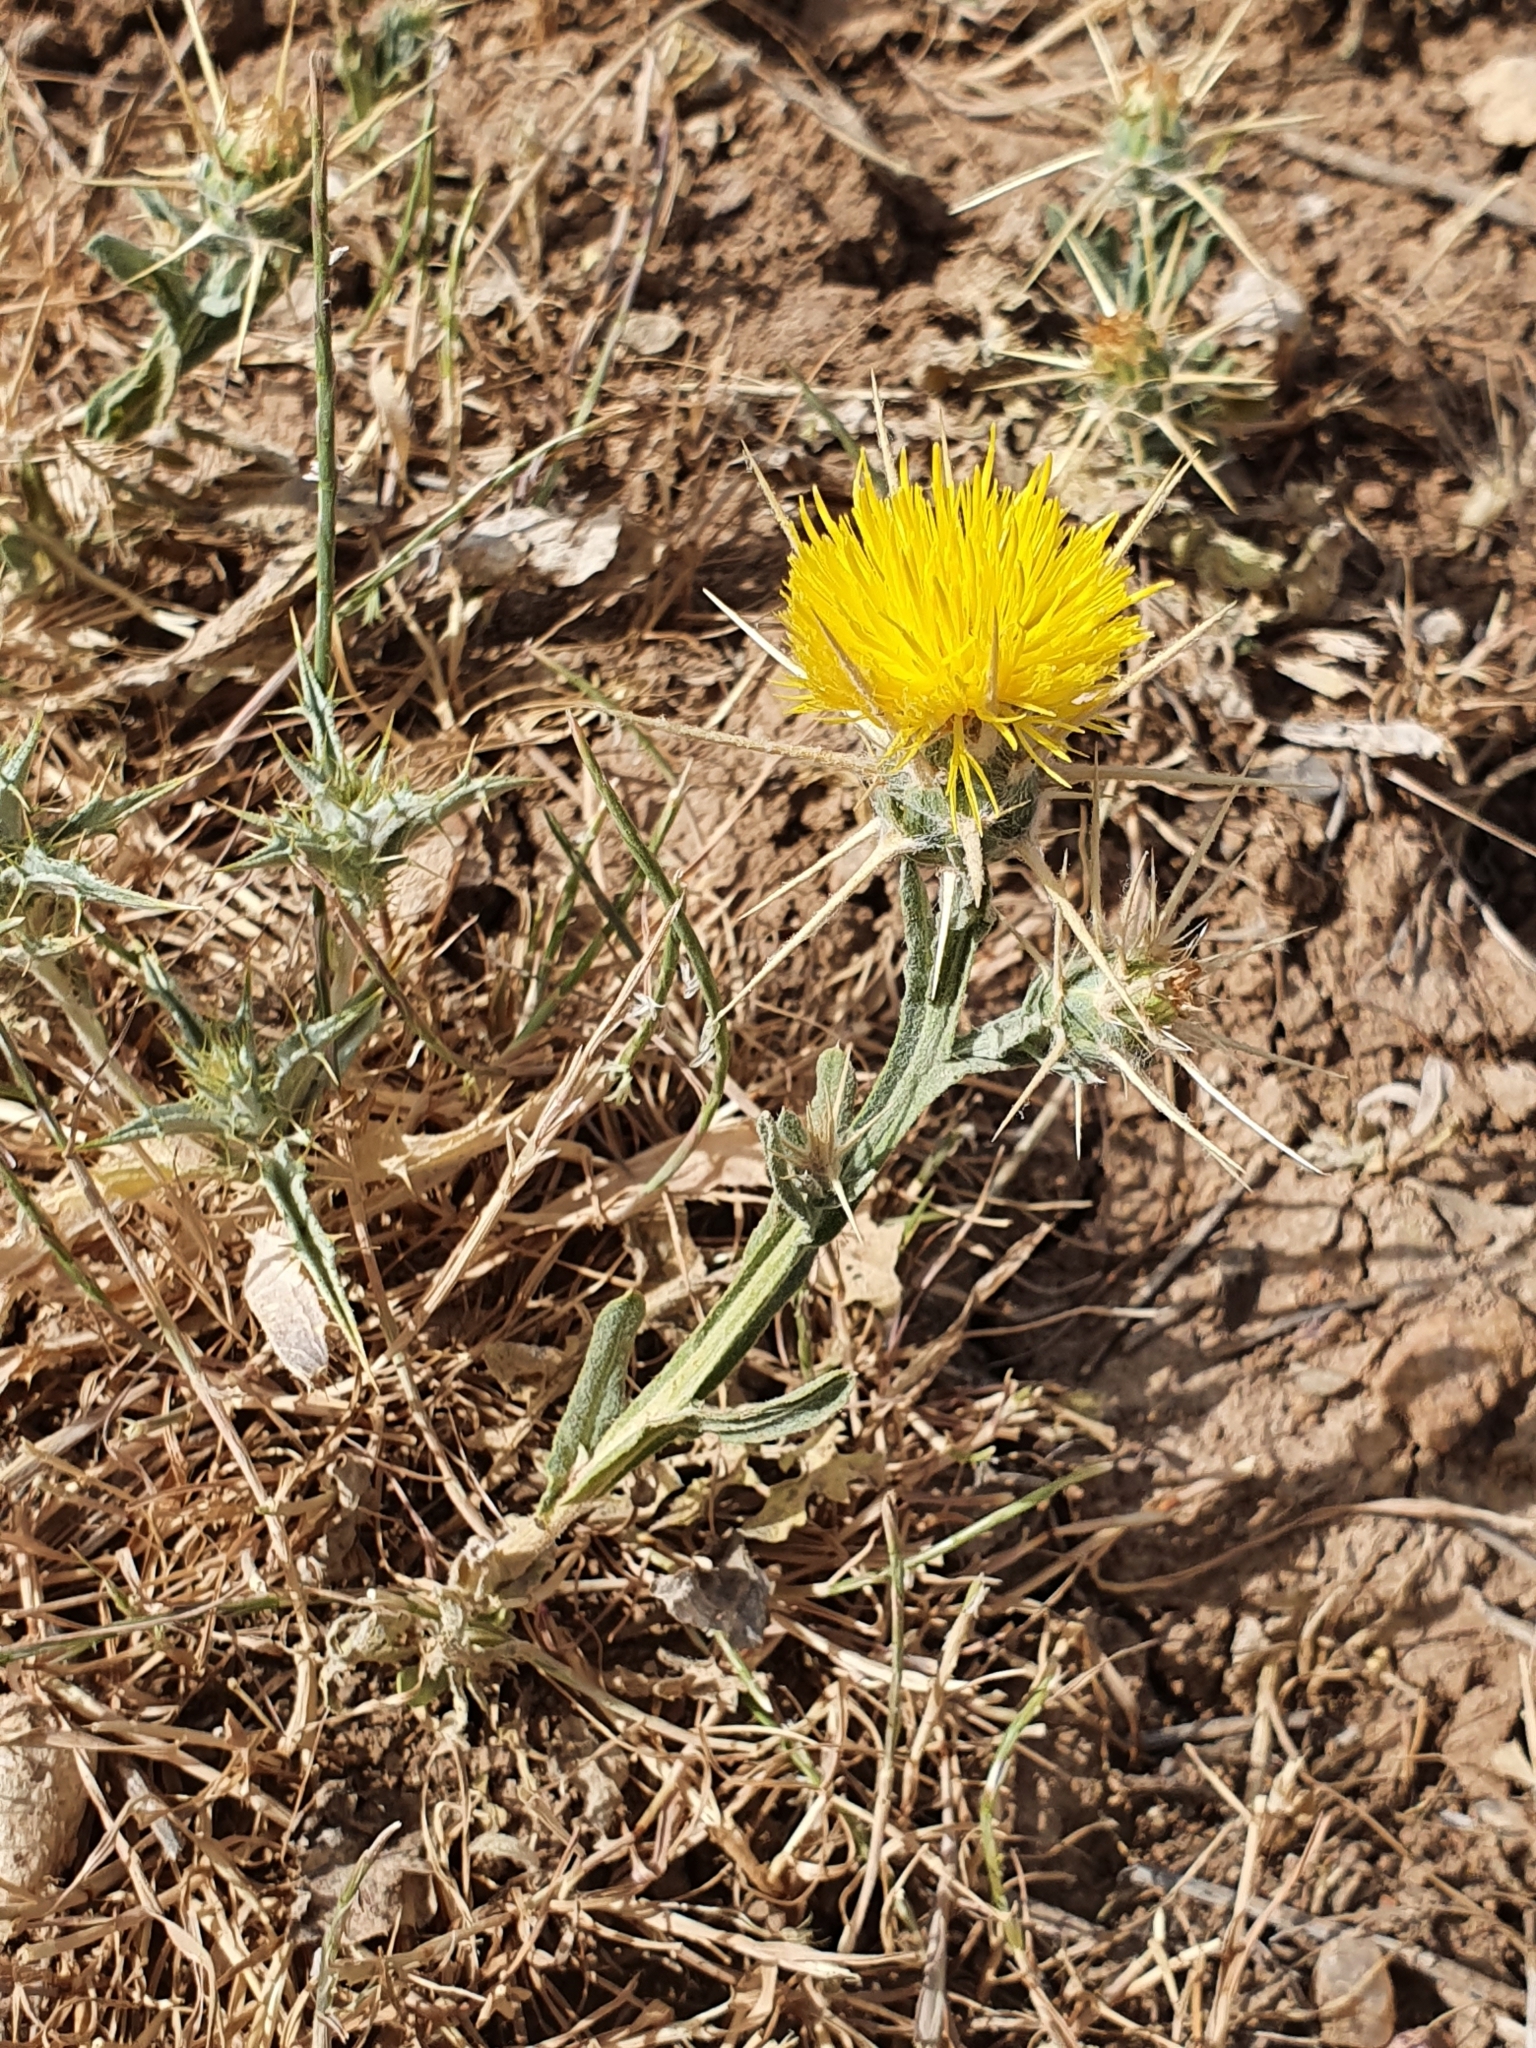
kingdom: Plantae
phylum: Tracheophyta
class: Magnoliopsida
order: Asterales
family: Asteraceae
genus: Centaurea
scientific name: Centaurea solstitialis
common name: Yellow star-thistle
